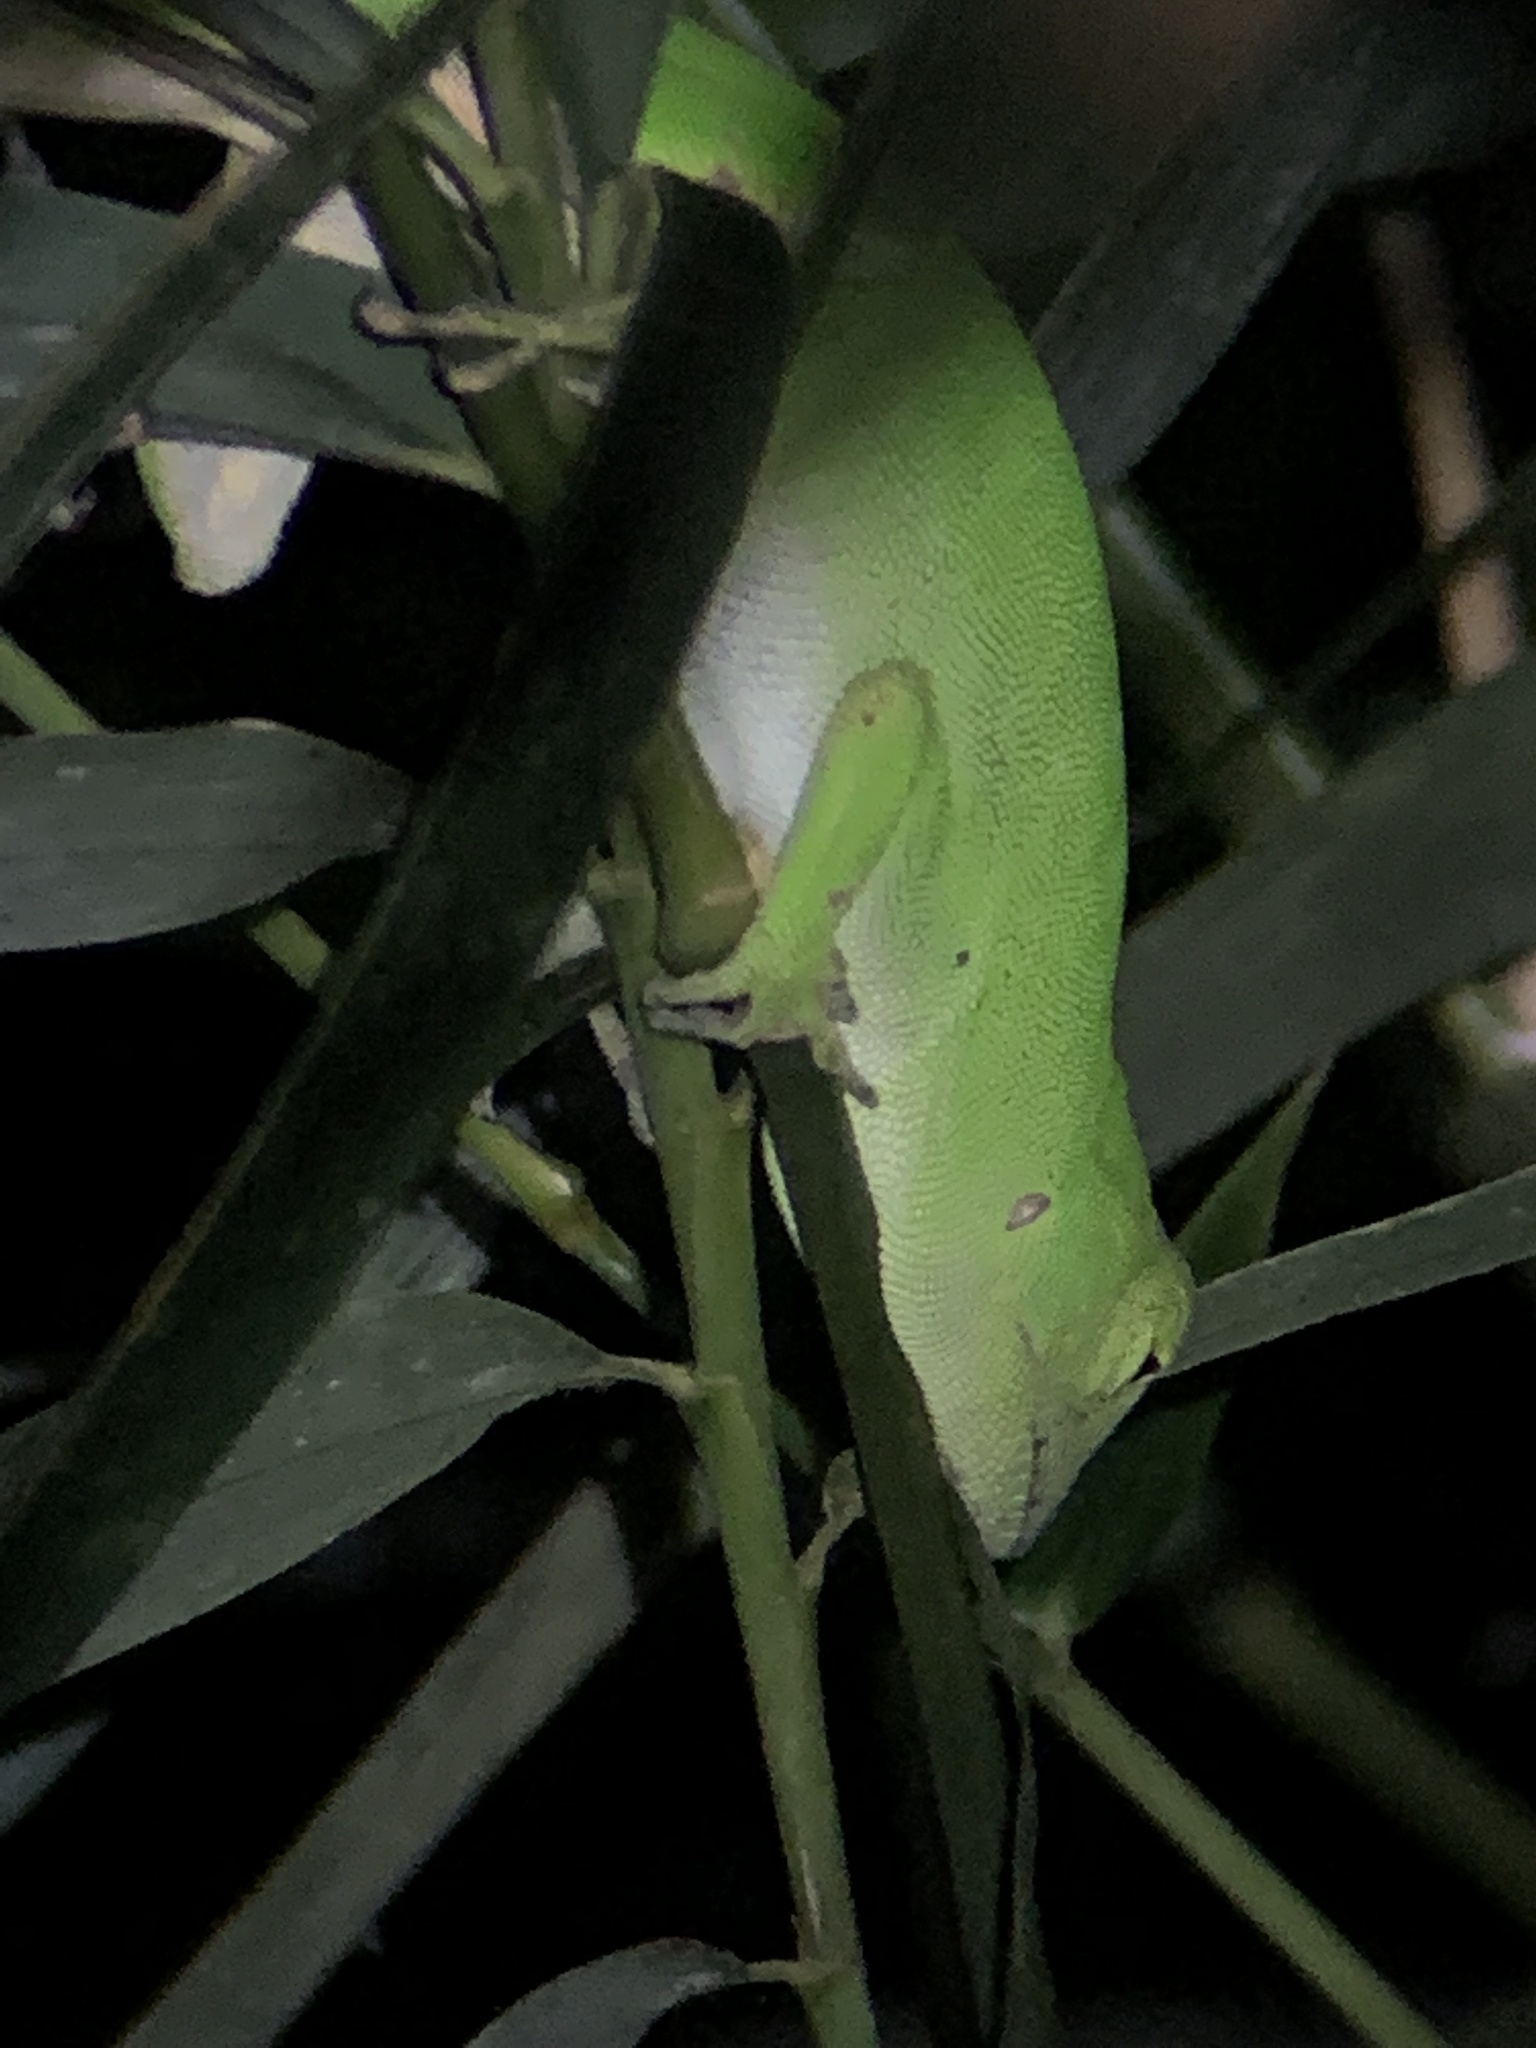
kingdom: Animalia
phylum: Chordata
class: Squamata
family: Dactyloidae
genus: Anolis
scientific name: Anolis biporcatus
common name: Giant green anole
